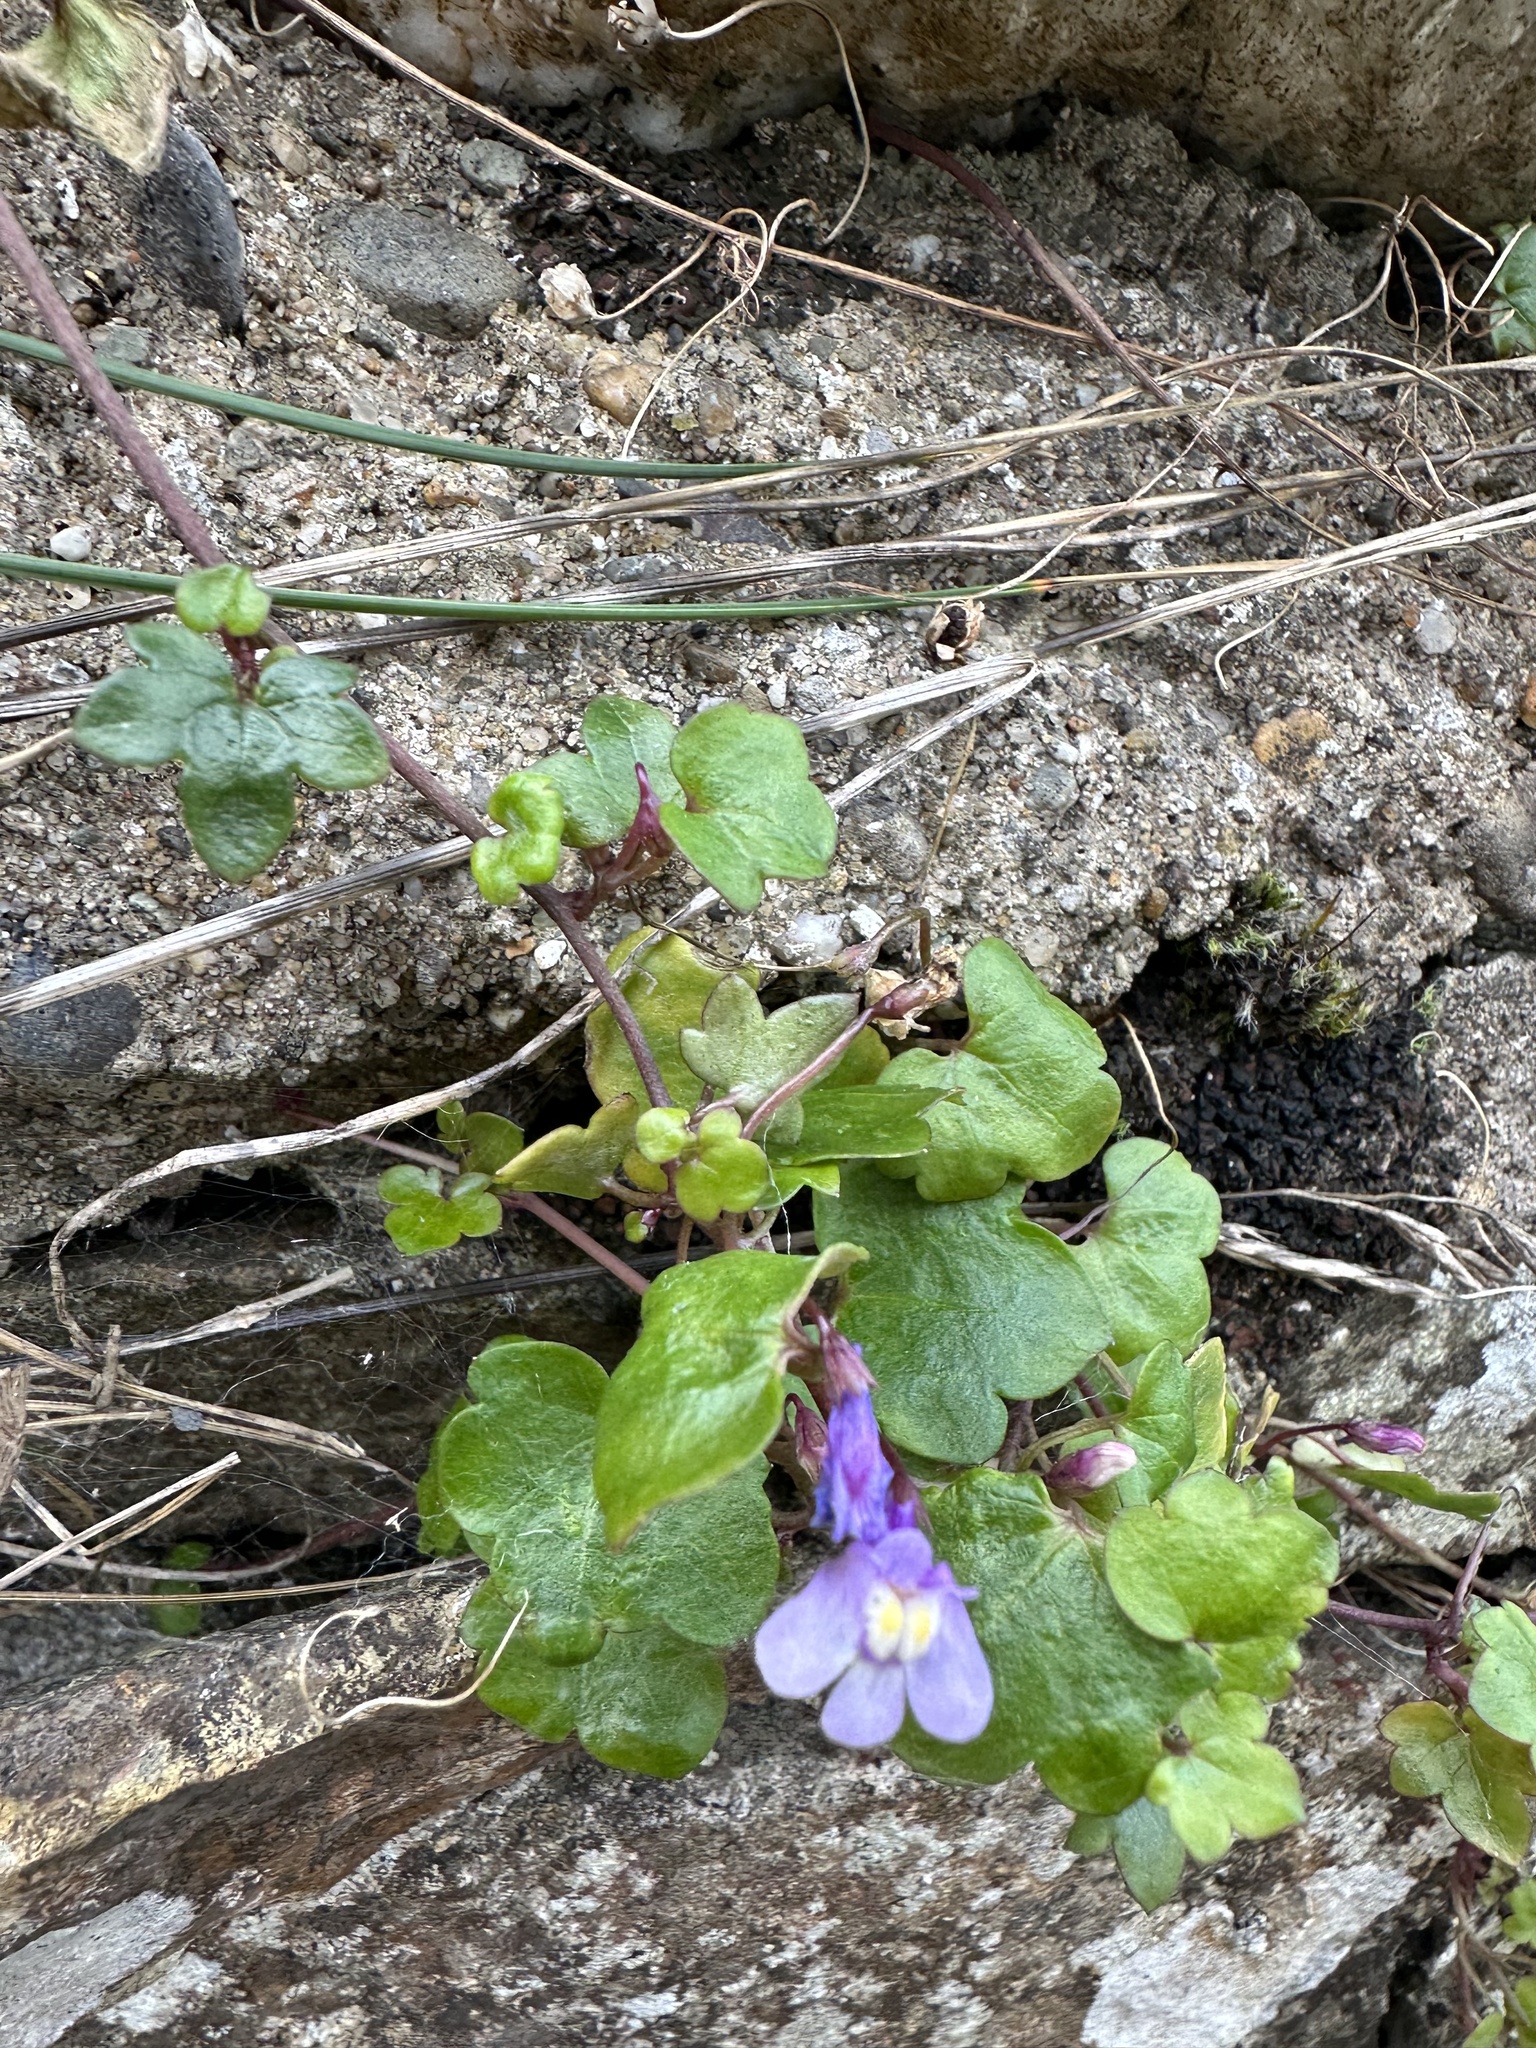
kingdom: Plantae
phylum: Tracheophyta
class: Magnoliopsida
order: Lamiales
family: Plantaginaceae
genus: Cymbalaria
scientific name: Cymbalaria muralis
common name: Ivy-leaved toadflax
